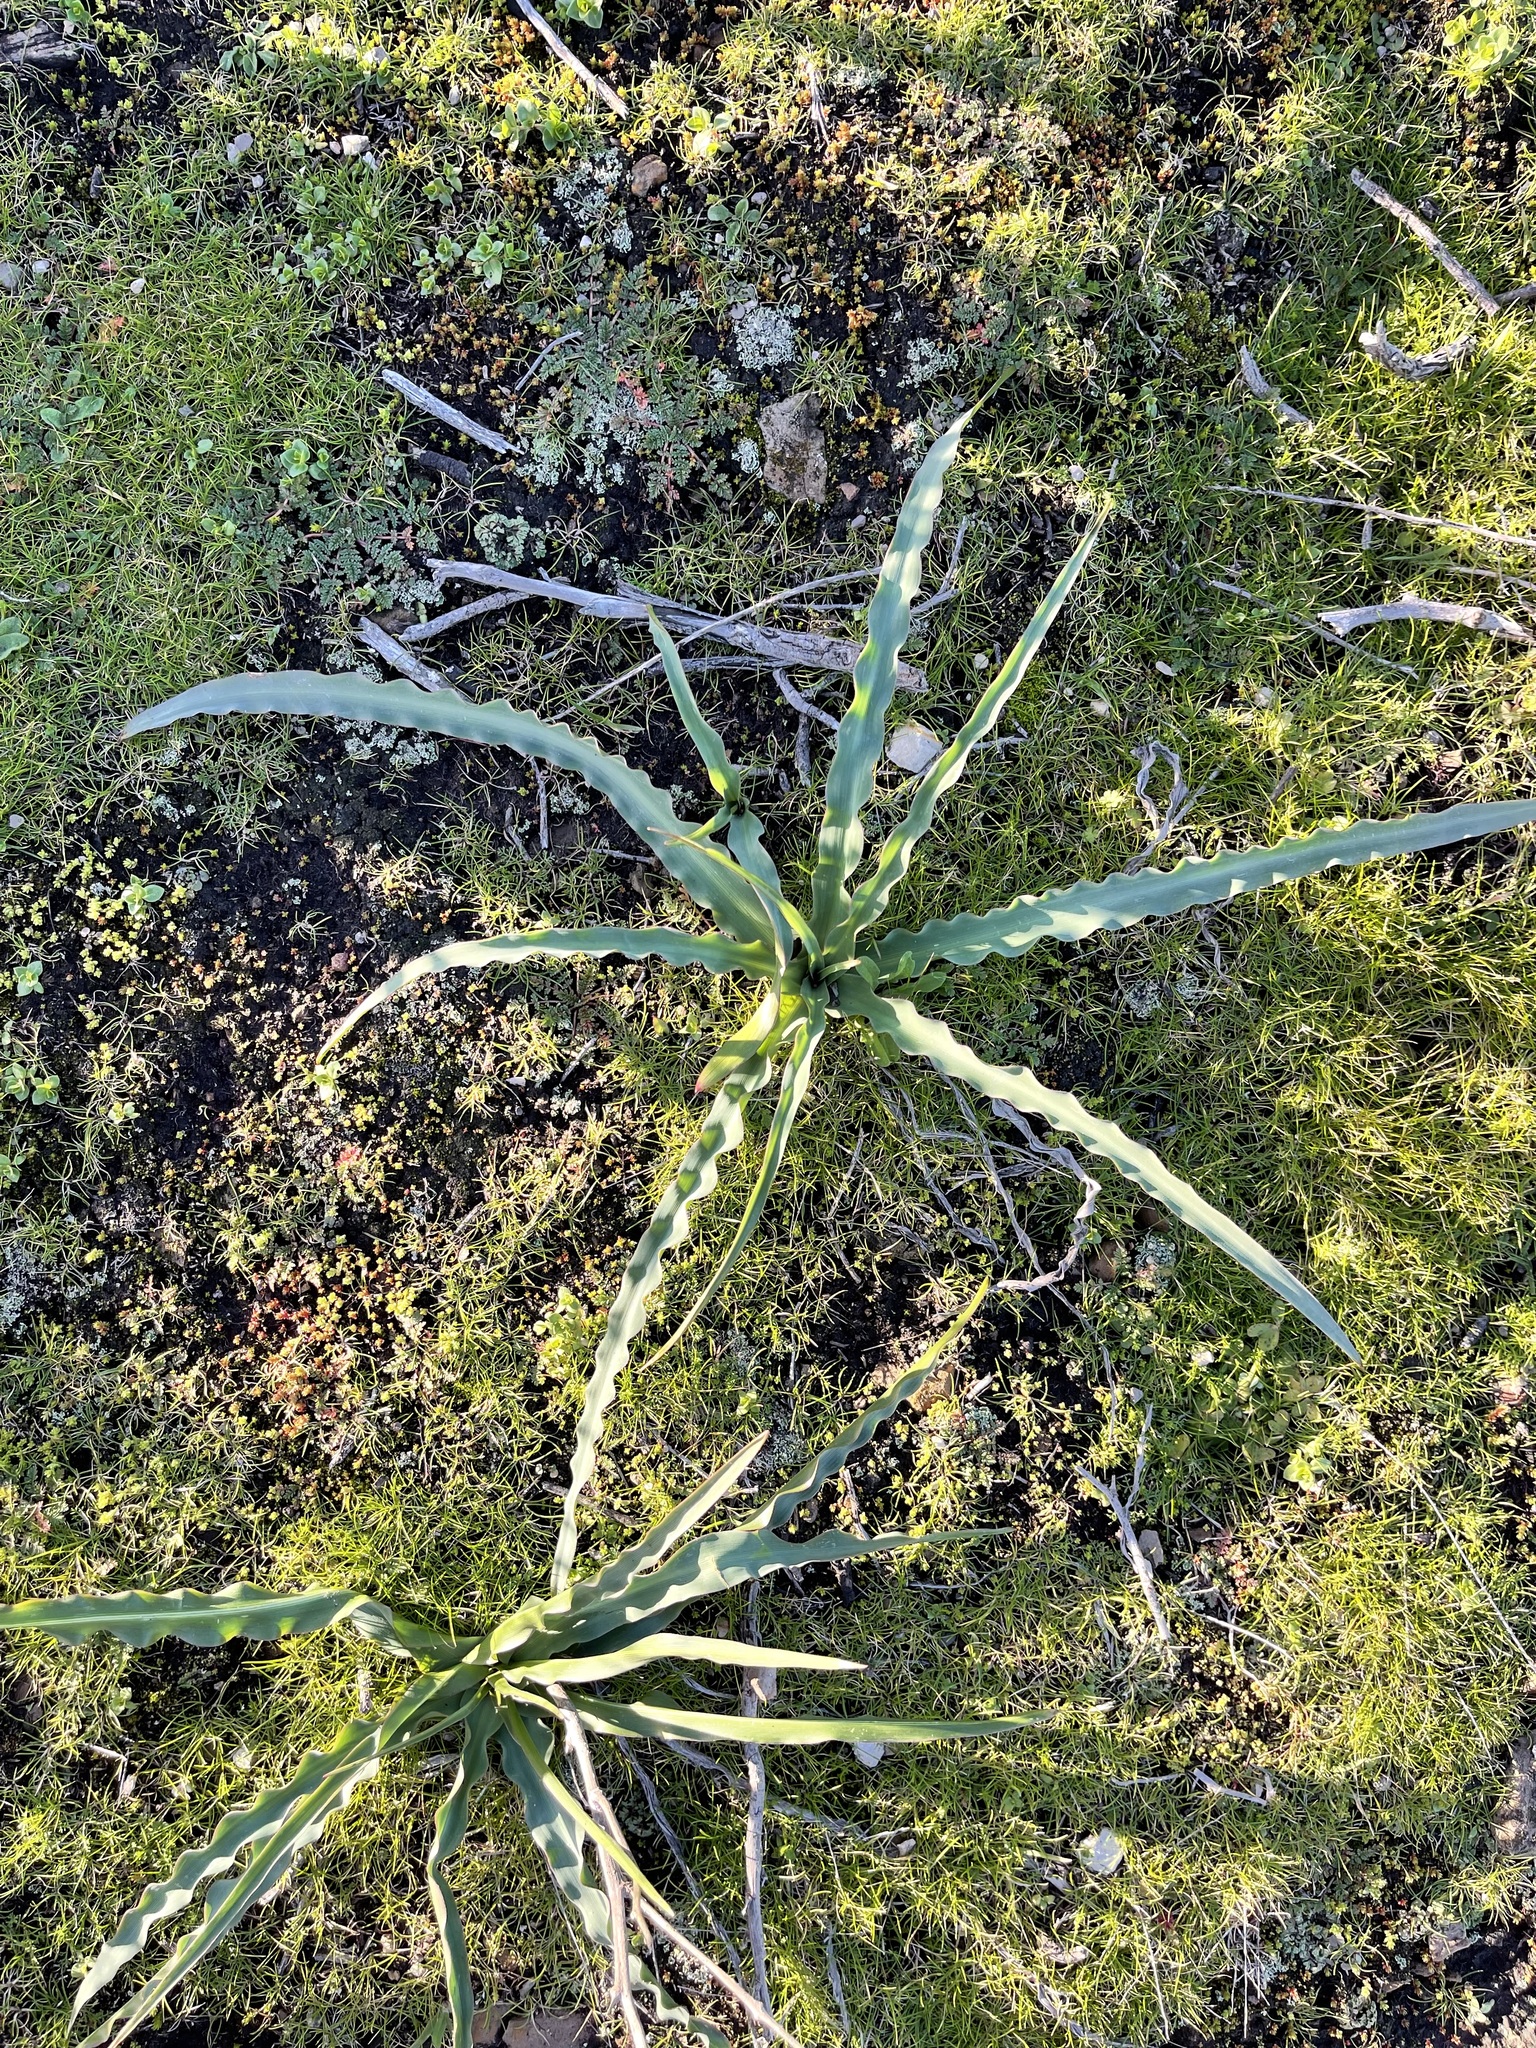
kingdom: Plantae
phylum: Tracheophyta
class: Liliopsida
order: Asparagales
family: Asparagaceae
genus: Chlorogalum
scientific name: Chlorogalum pomeridianum
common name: Amole
